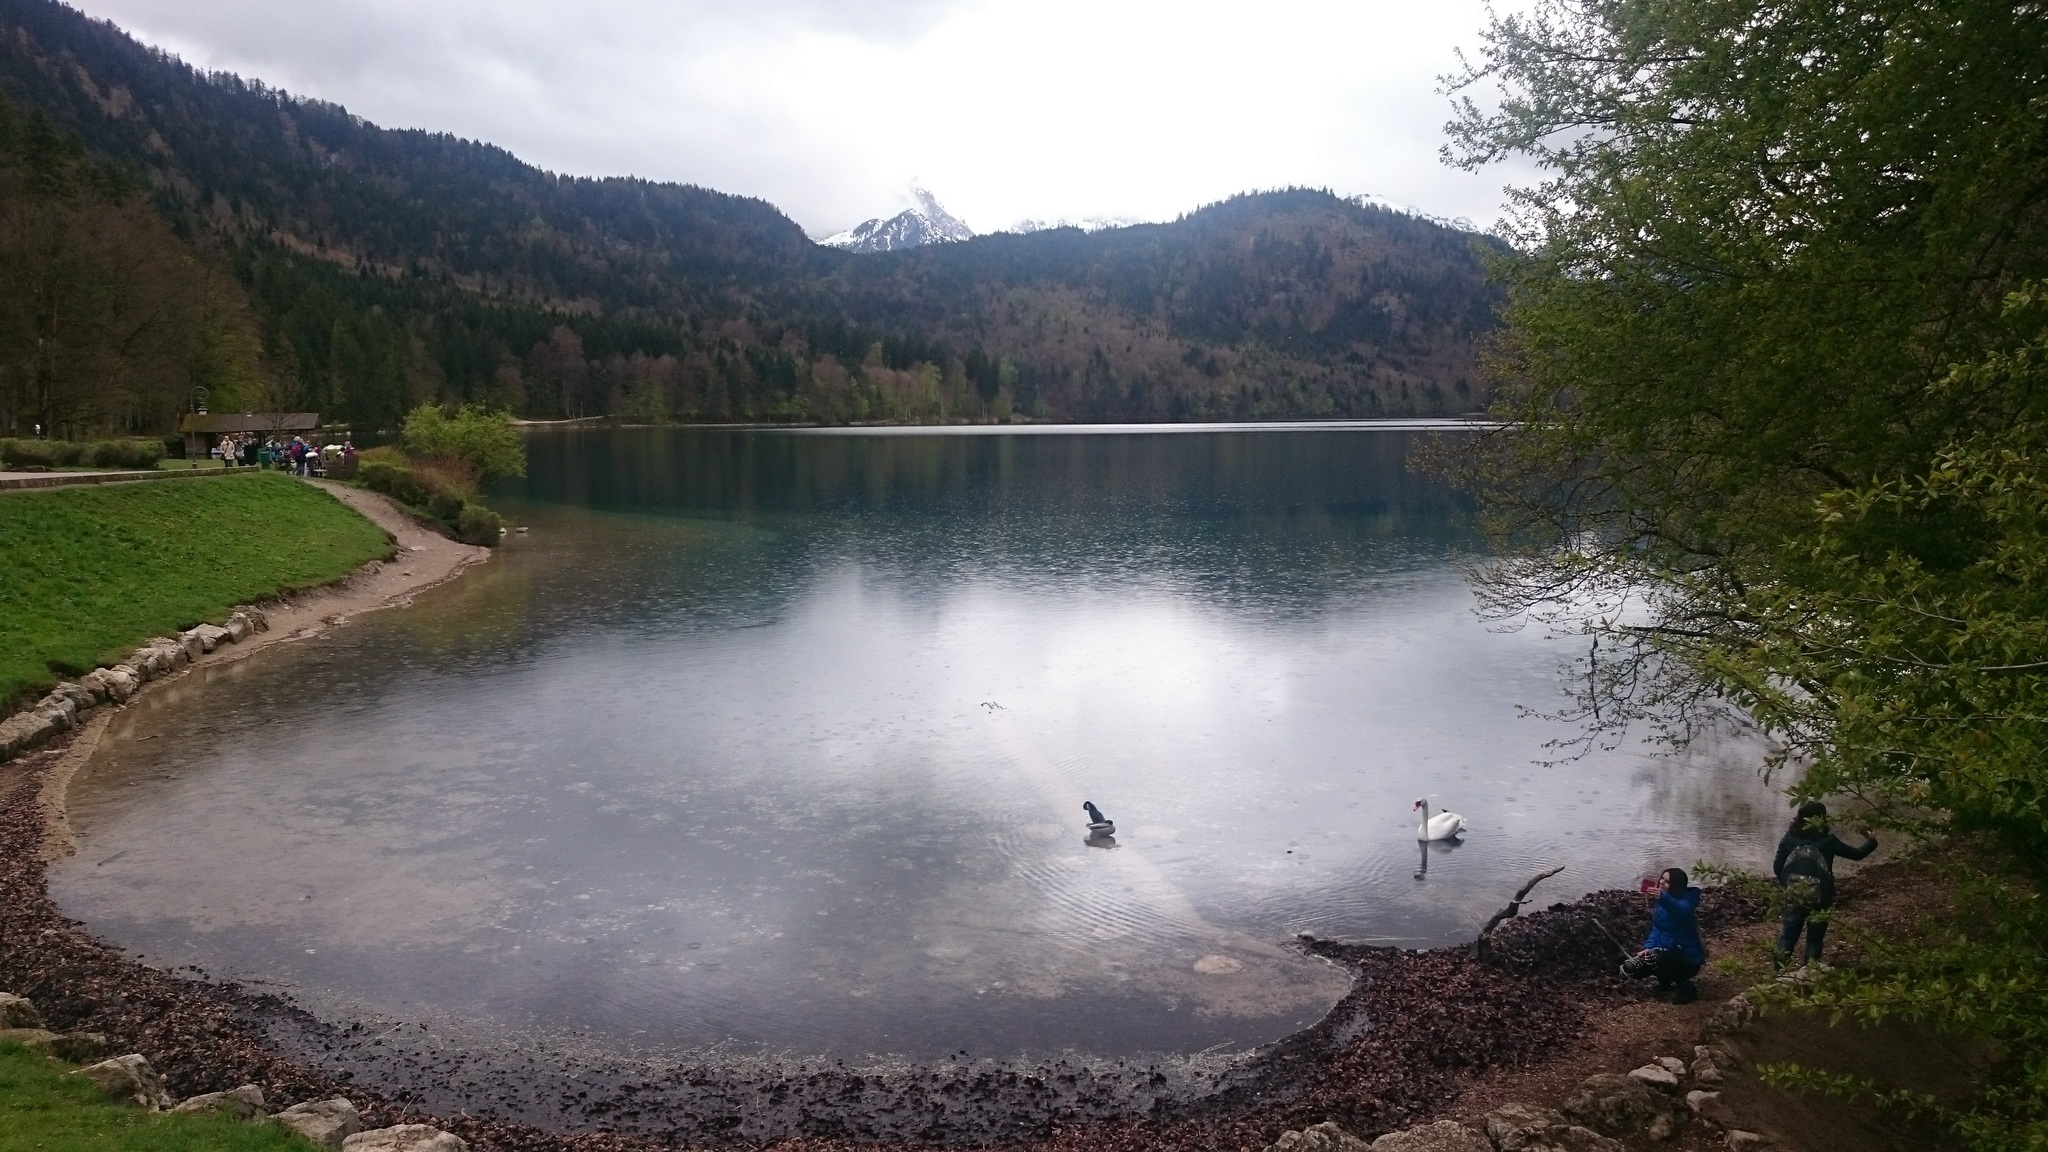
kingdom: Animalia
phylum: Chordata
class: Aves
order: Anseriformes
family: Anatidae
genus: Cygnus
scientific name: Cygnus olor
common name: Mute swan
